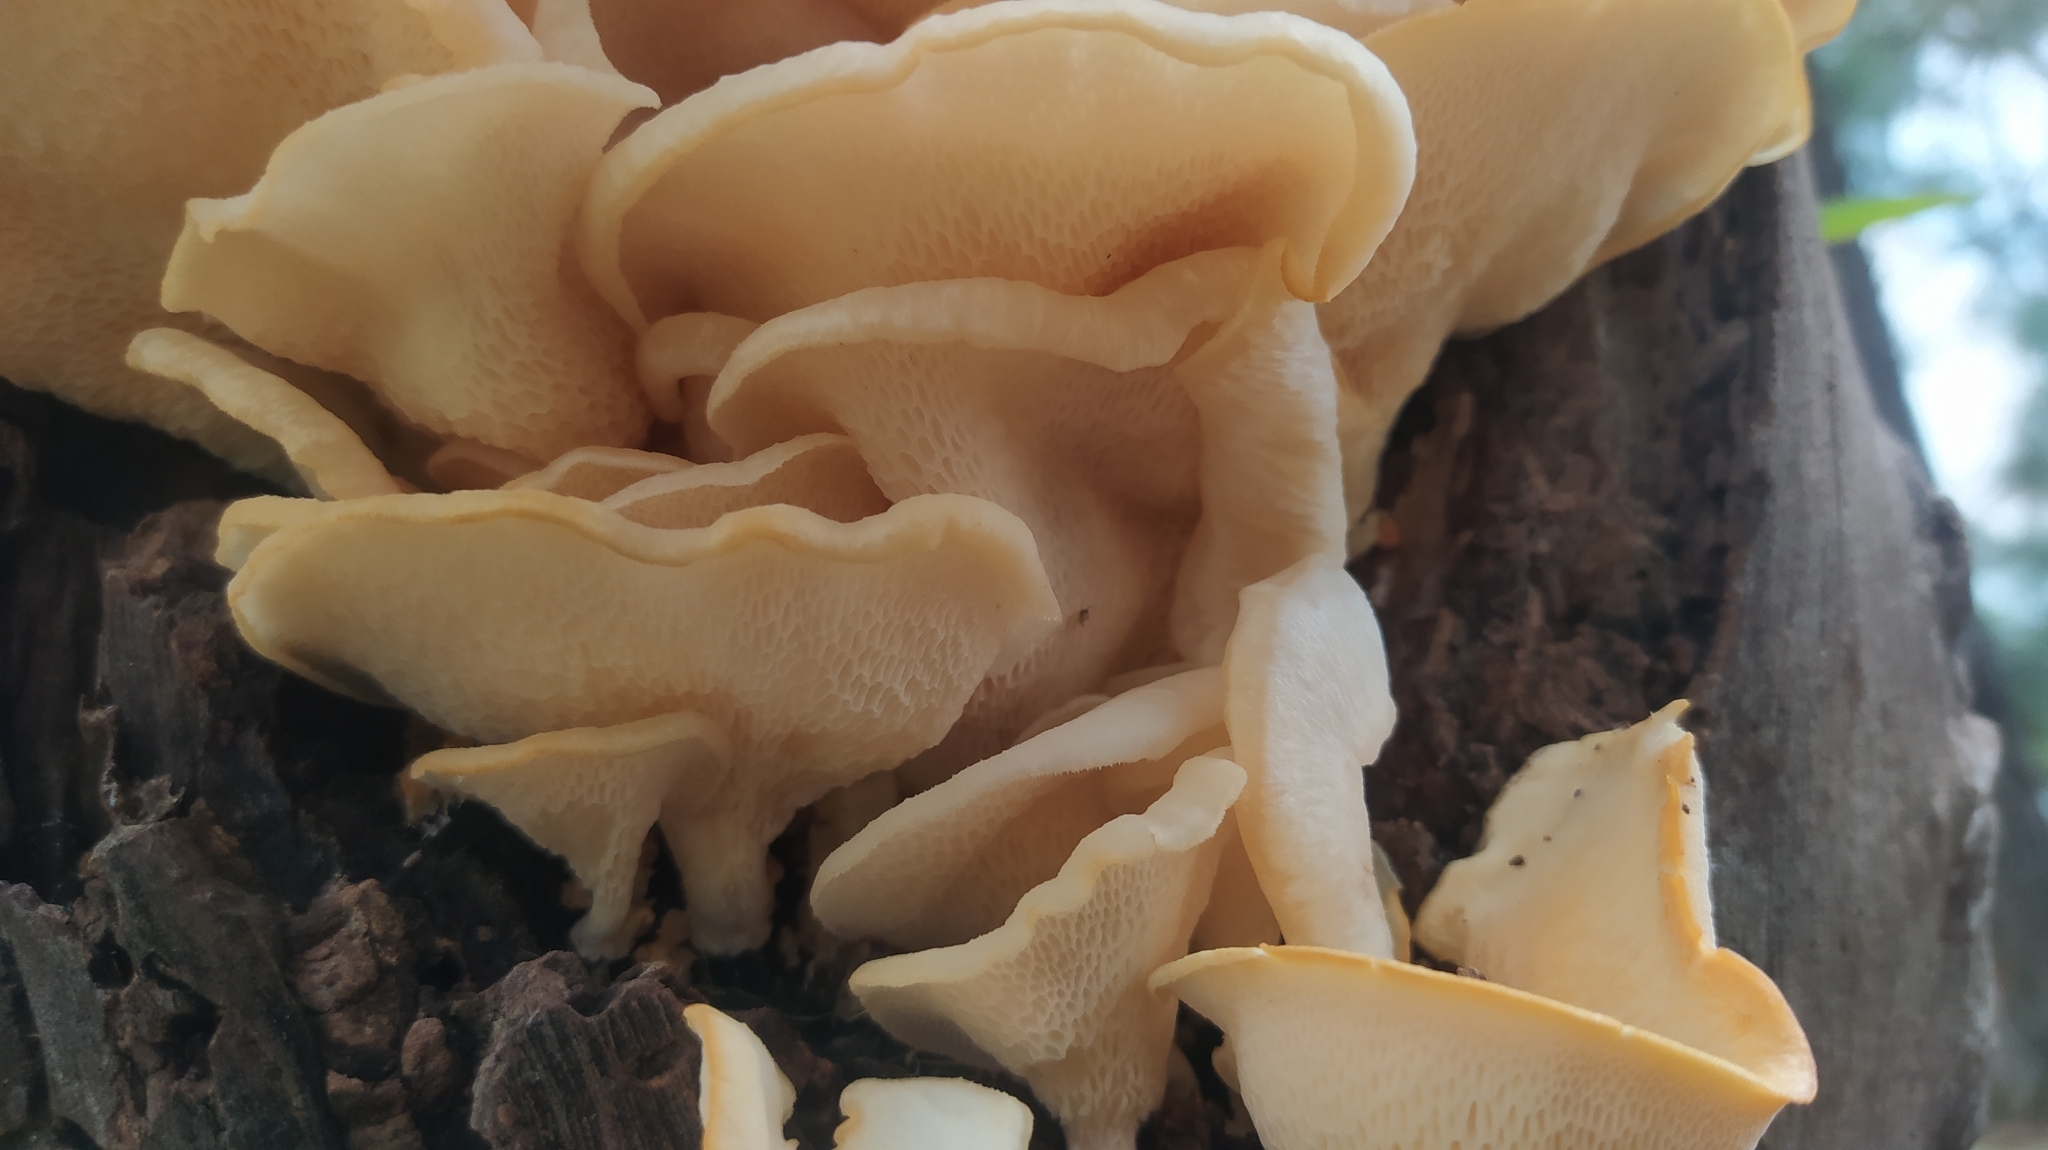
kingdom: Fungi
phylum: Basidiomycota
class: Agaricomycetes
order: Polyporales
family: Polyporaceae
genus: Favolus
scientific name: Favolus tenuiculus
